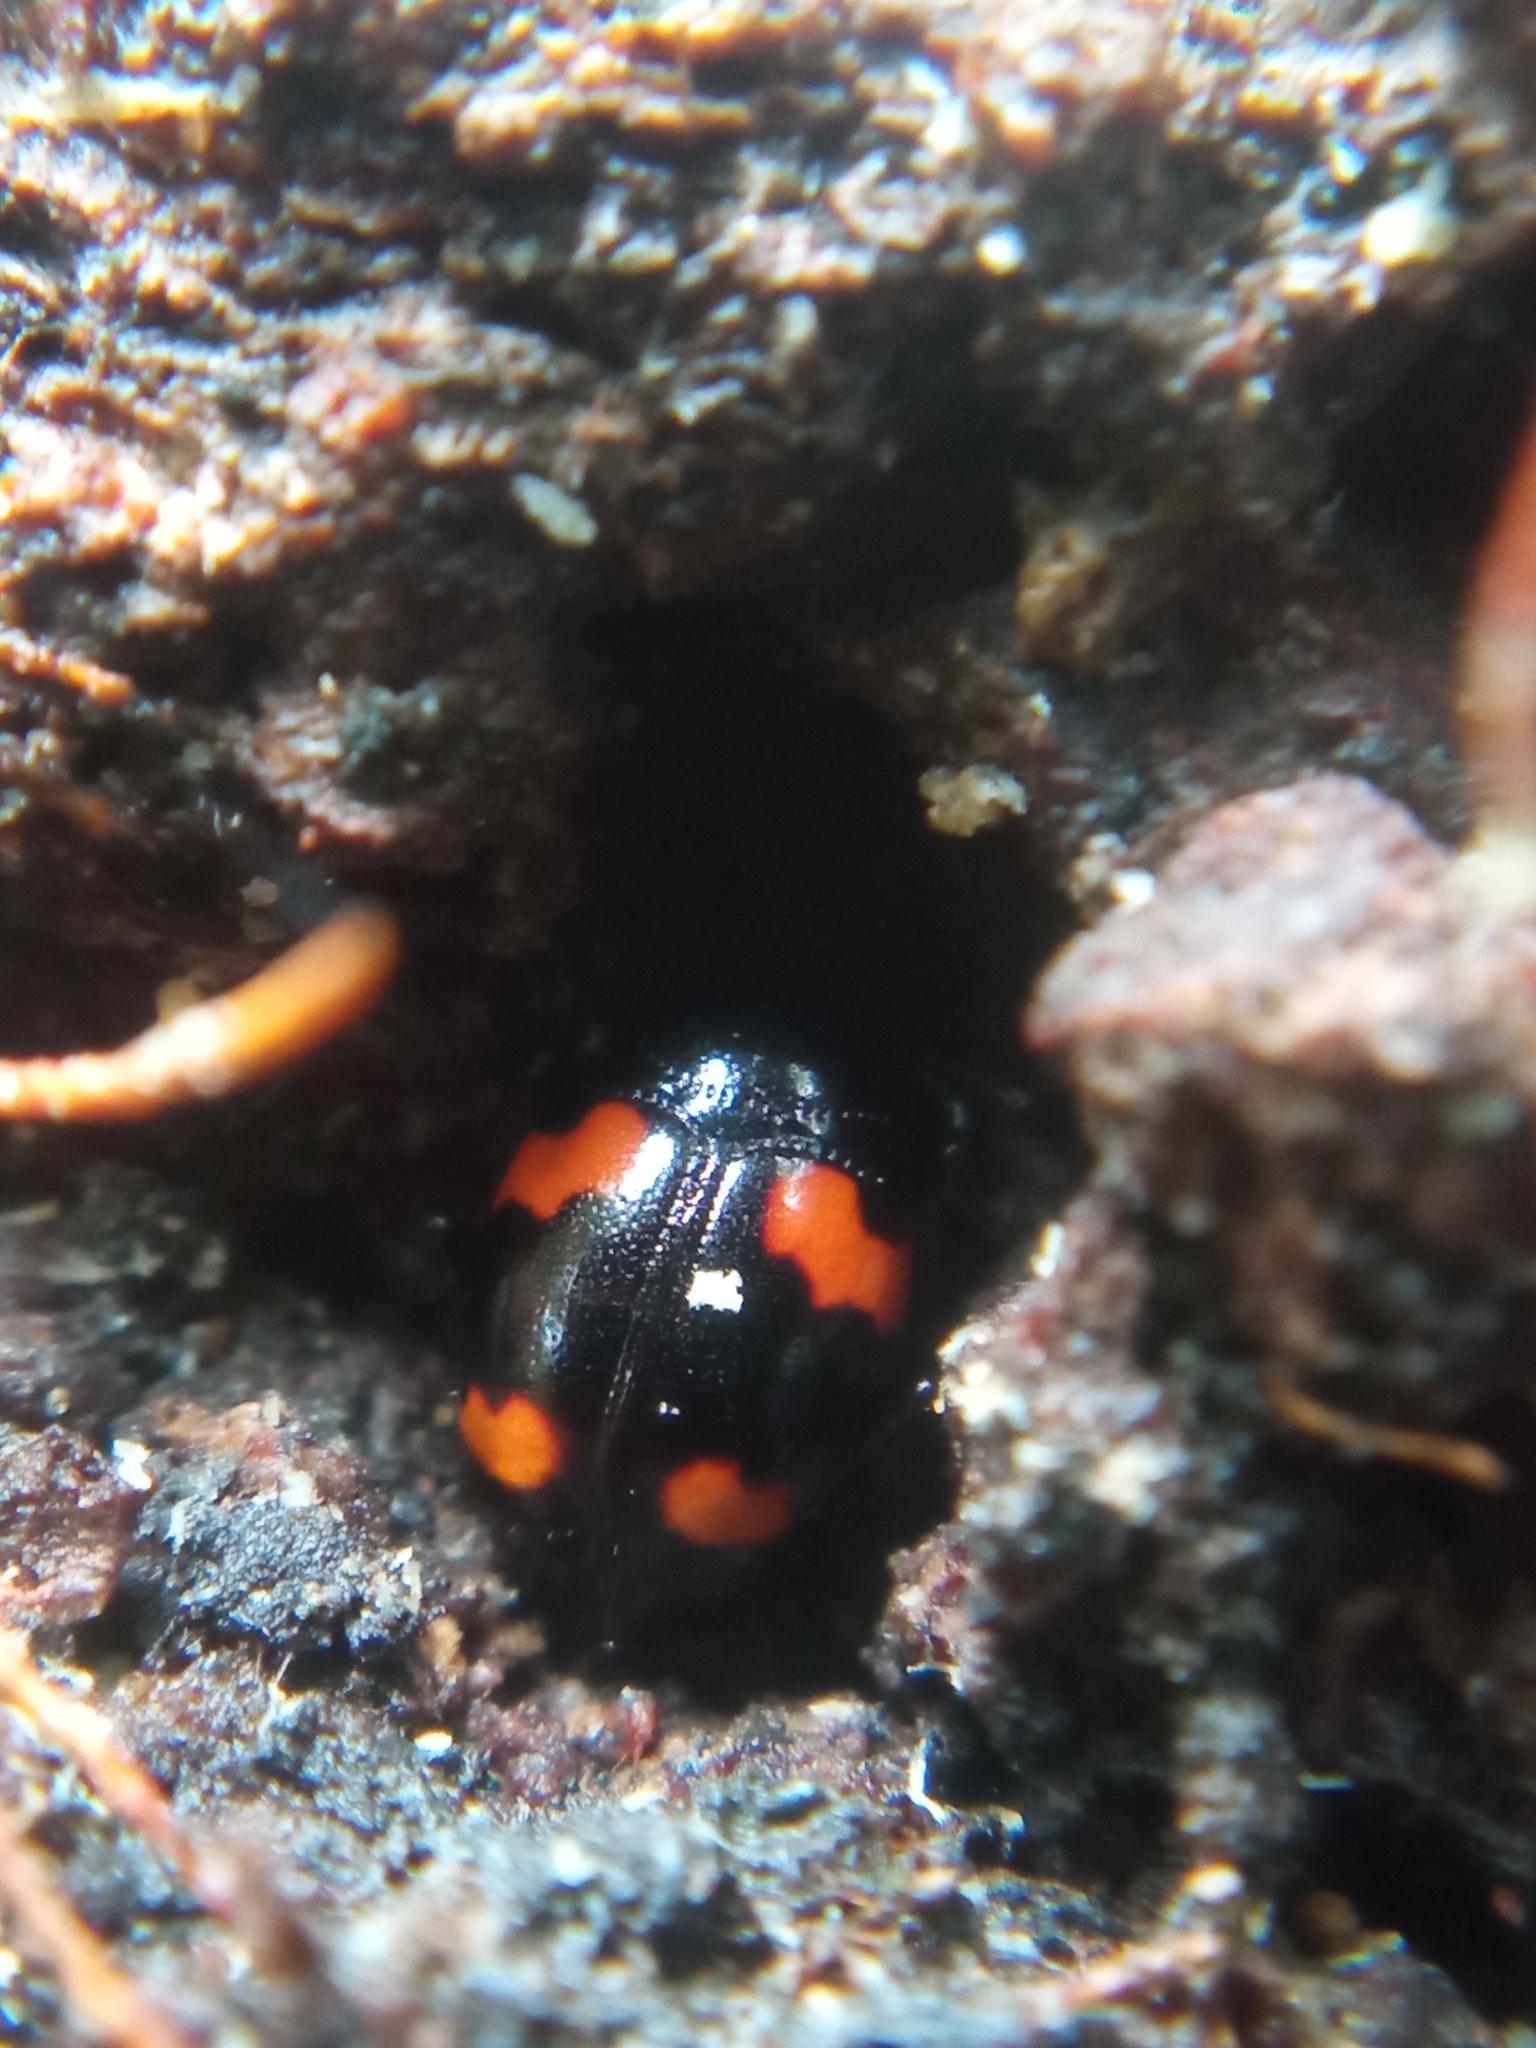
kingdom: Animalia
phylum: Arthropoda
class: Insecta
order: Coleoptera
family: Staphylinidae
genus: Scaphidium
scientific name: Scaphidium quadrimaculatum
